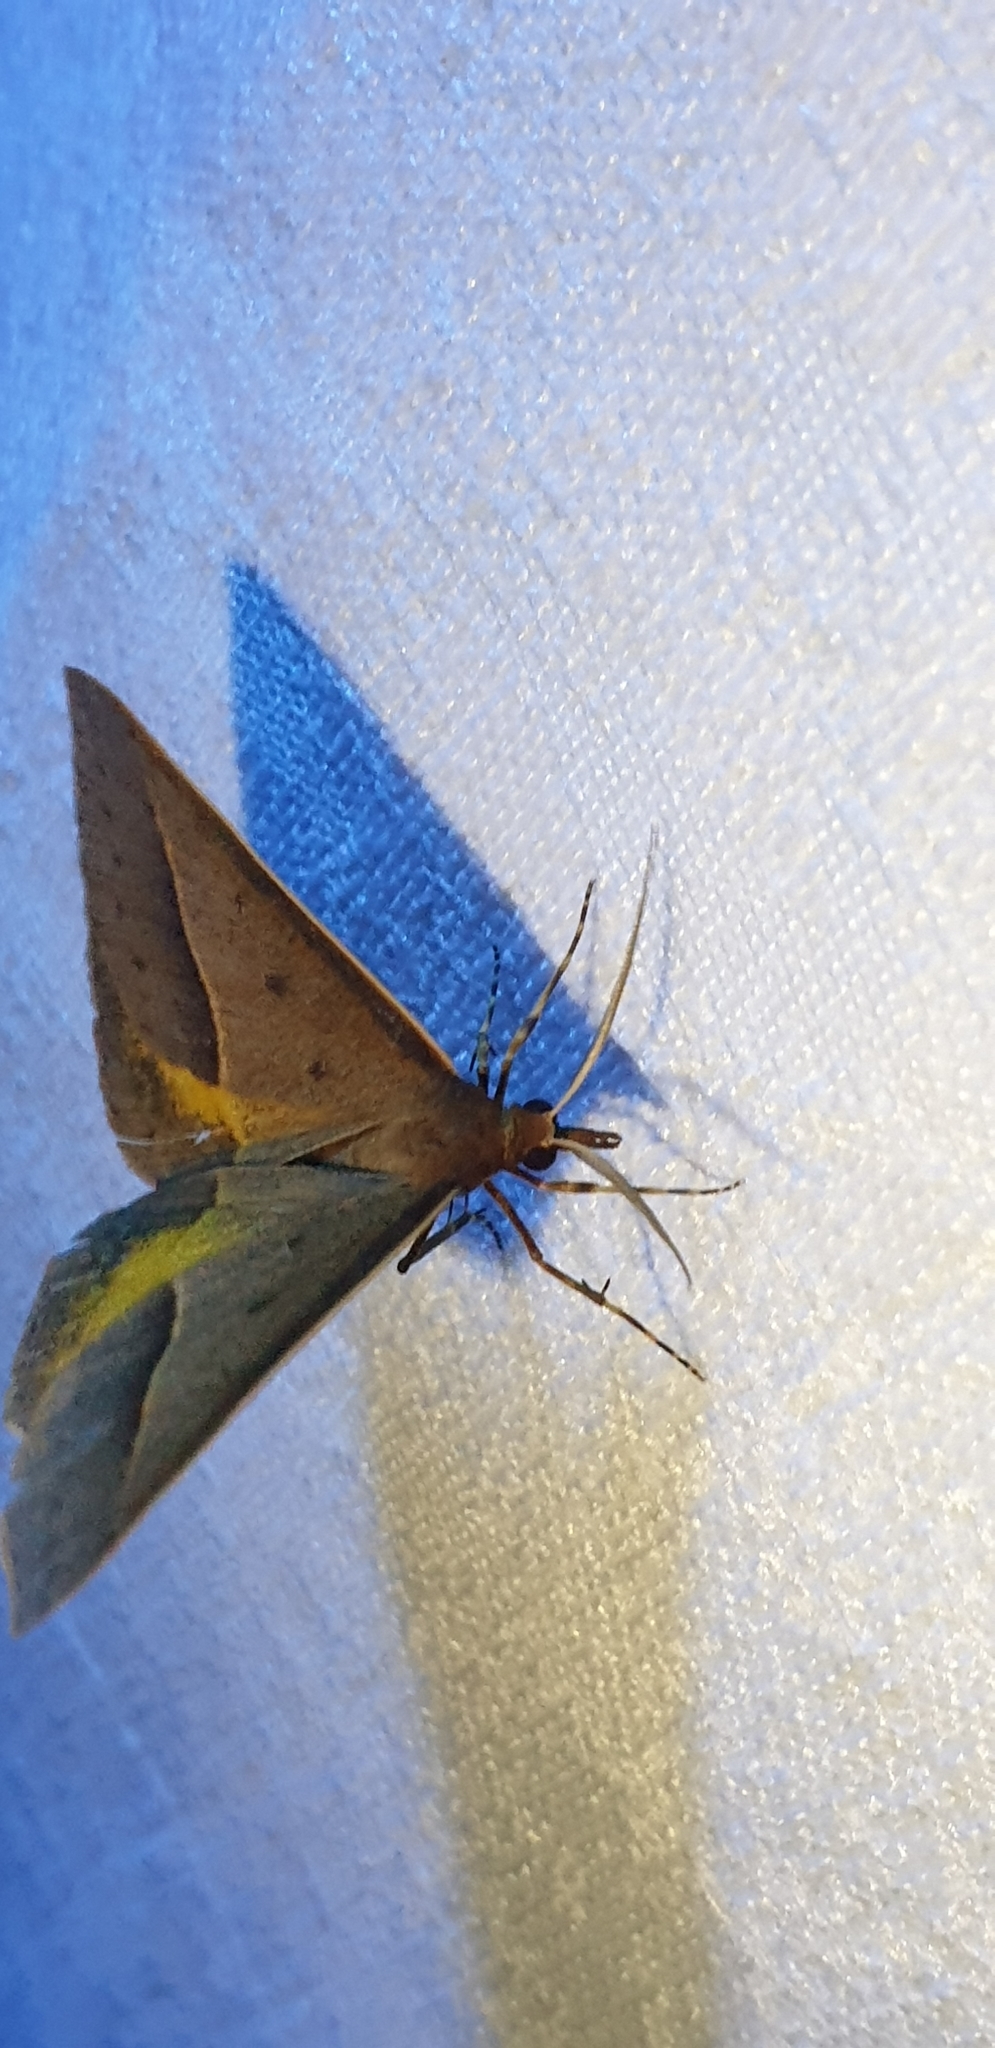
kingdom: Animalia
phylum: Arthropoda
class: Insecta
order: Lepidoptera
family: Geometridae
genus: Epidesmia
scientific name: Epidesmia chilonaria
